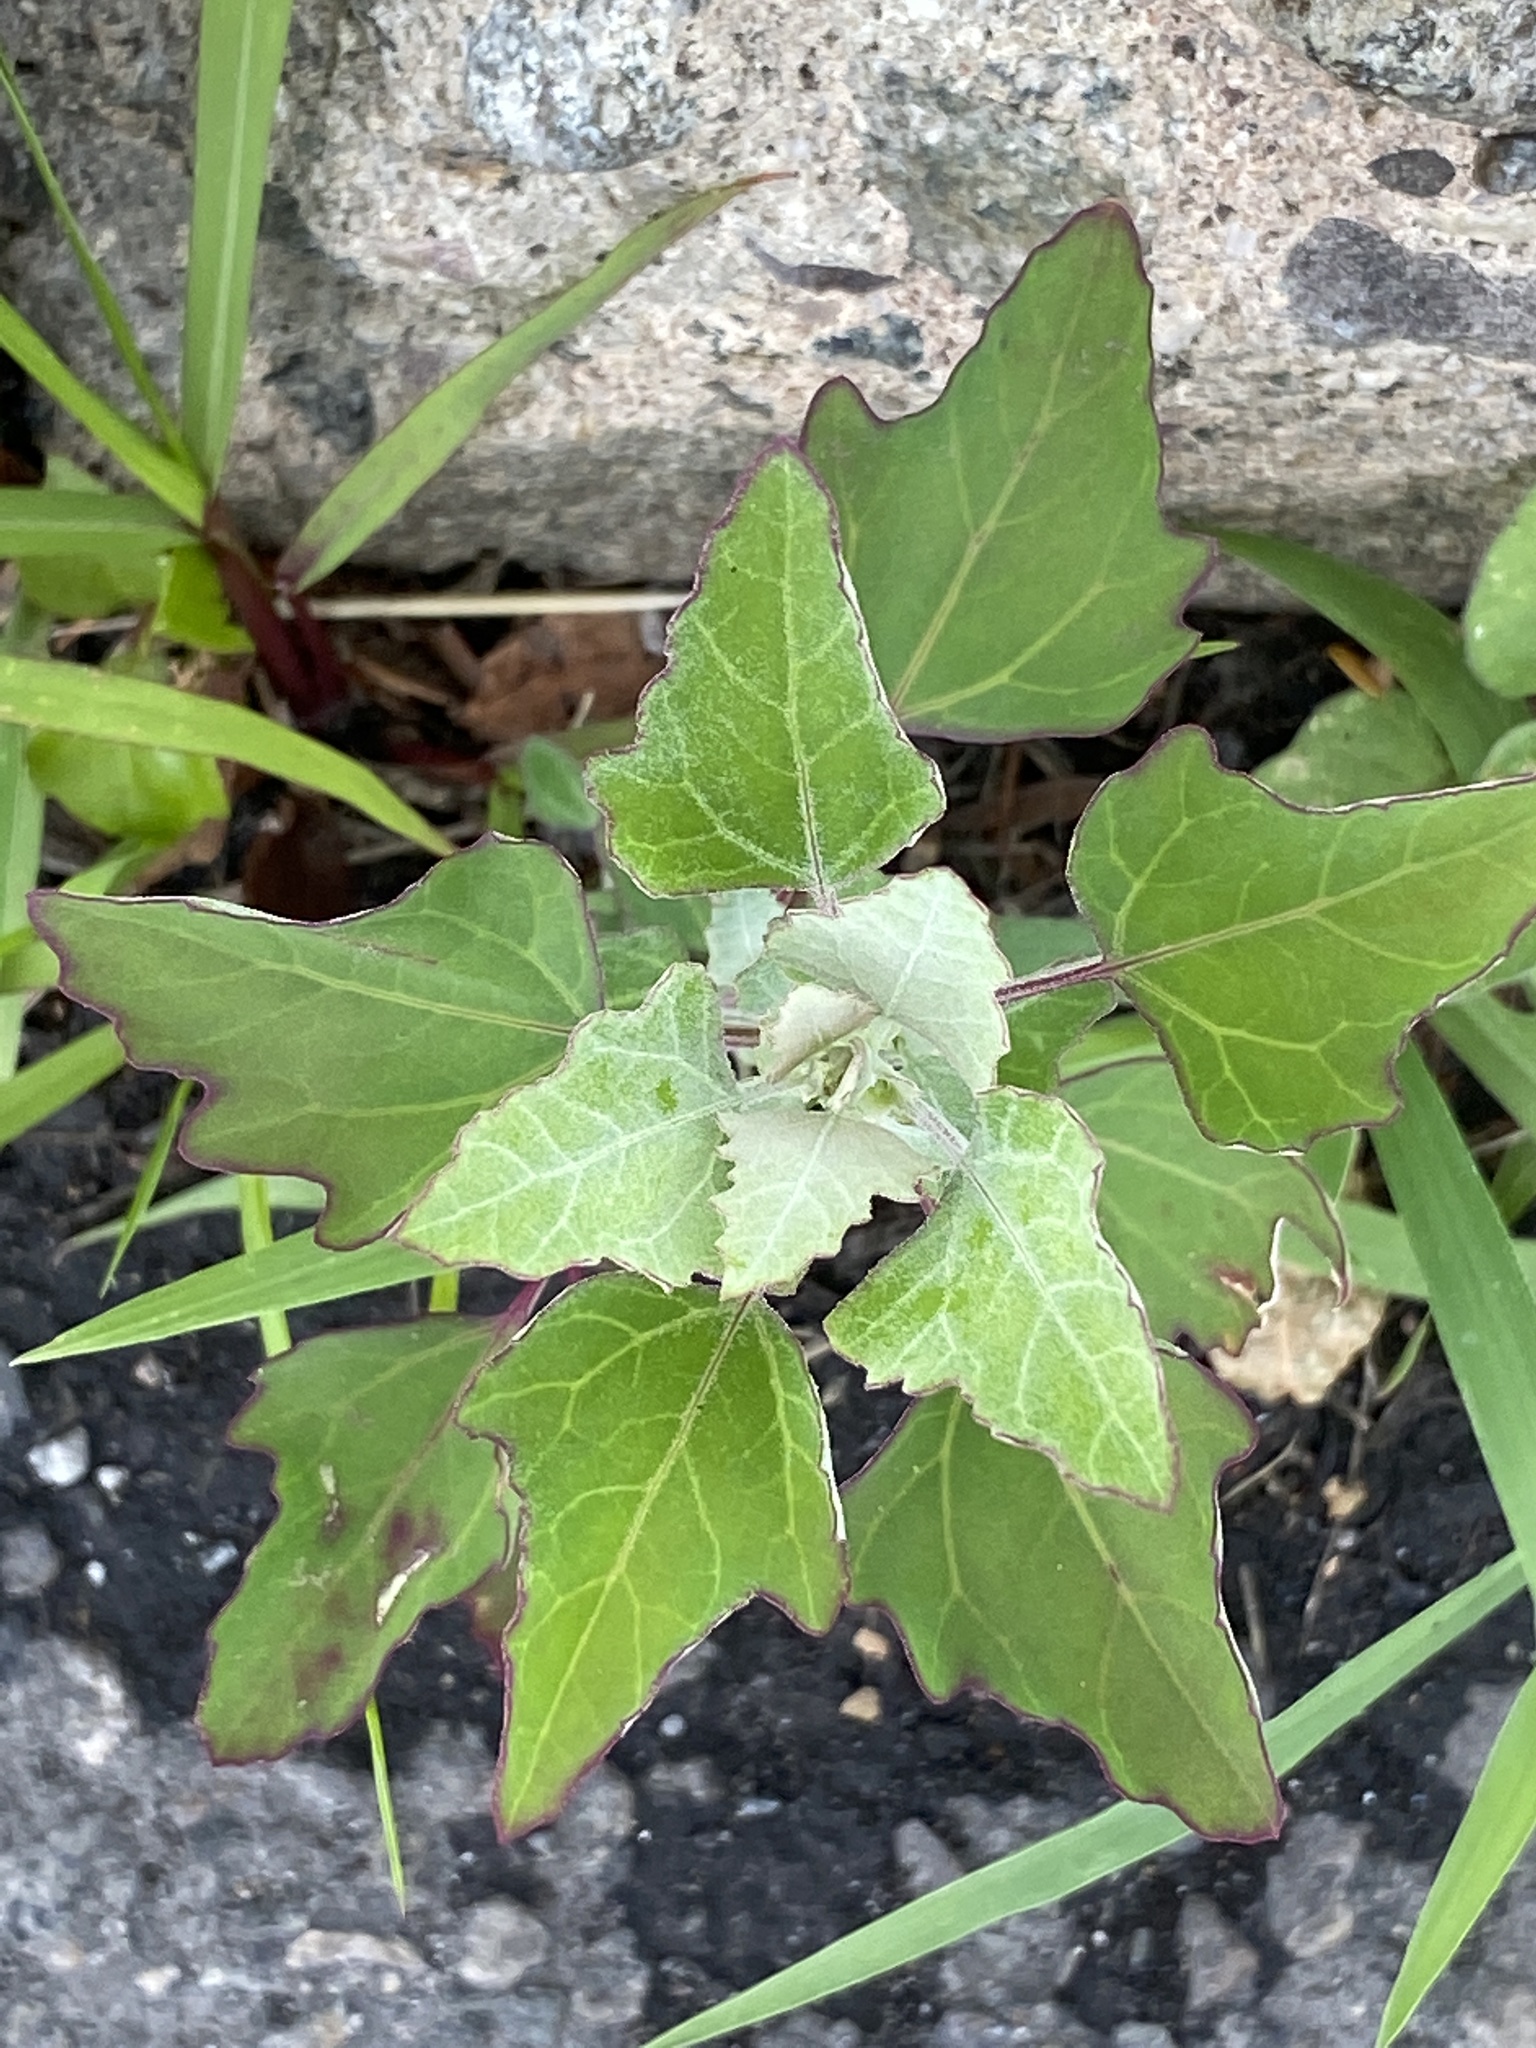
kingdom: Plantae
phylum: Tracheophyta
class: Magnoliopsida
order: Caryophyllales
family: Amaranthaceae
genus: Chenopodium
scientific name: Chenopodium album
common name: Fat-hen
